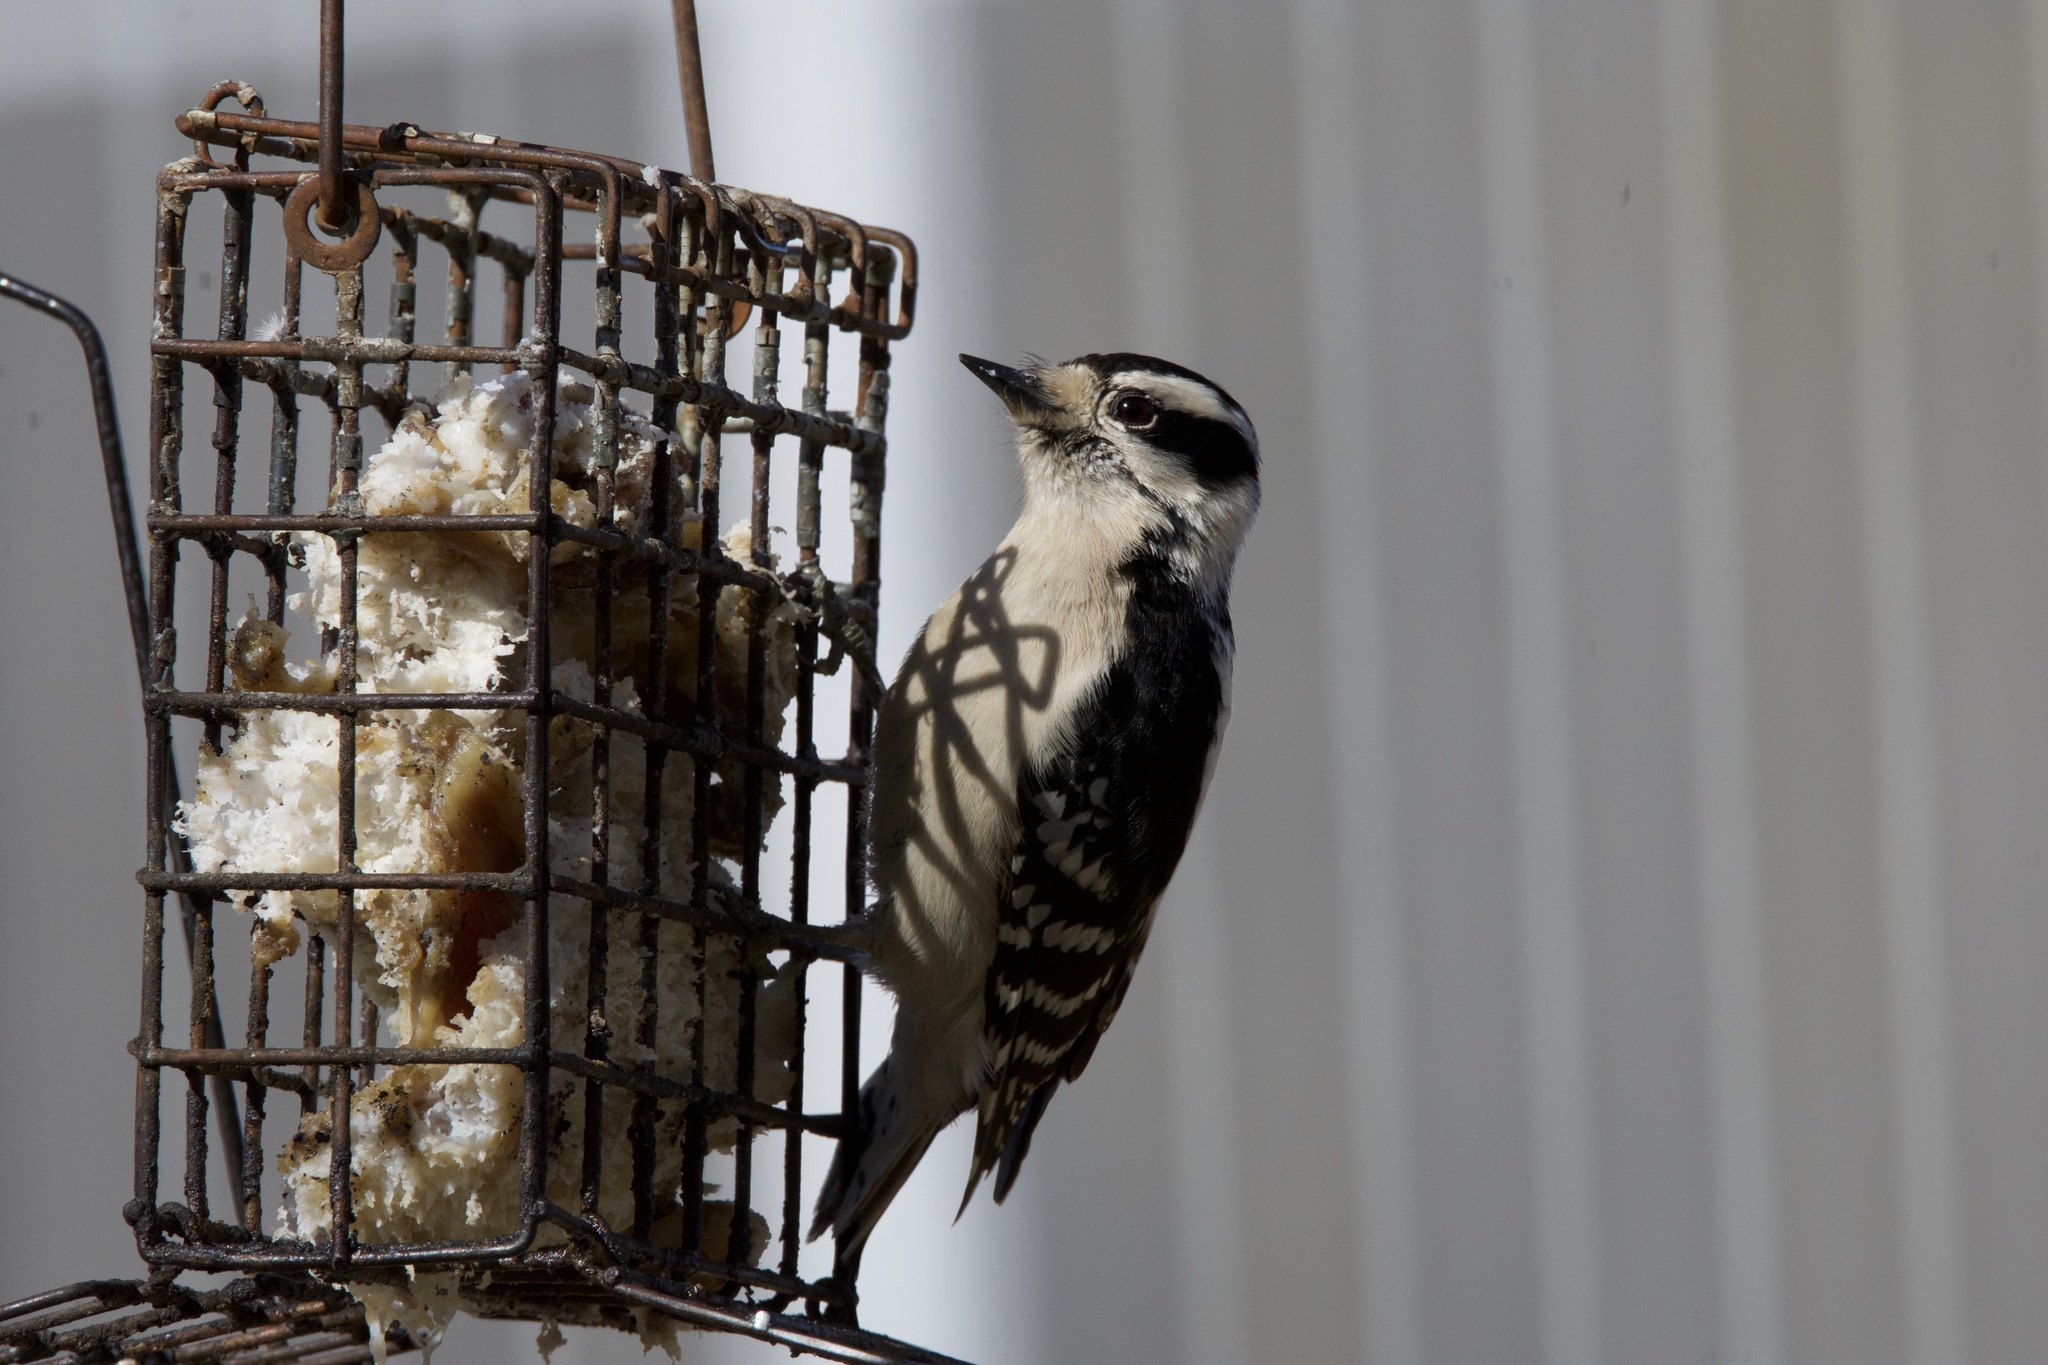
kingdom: Animalia
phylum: Chordata
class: Aves
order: Piciformes
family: Picidae
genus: Dryobates
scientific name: Dryobates pubescens
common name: Downy woodpecker
